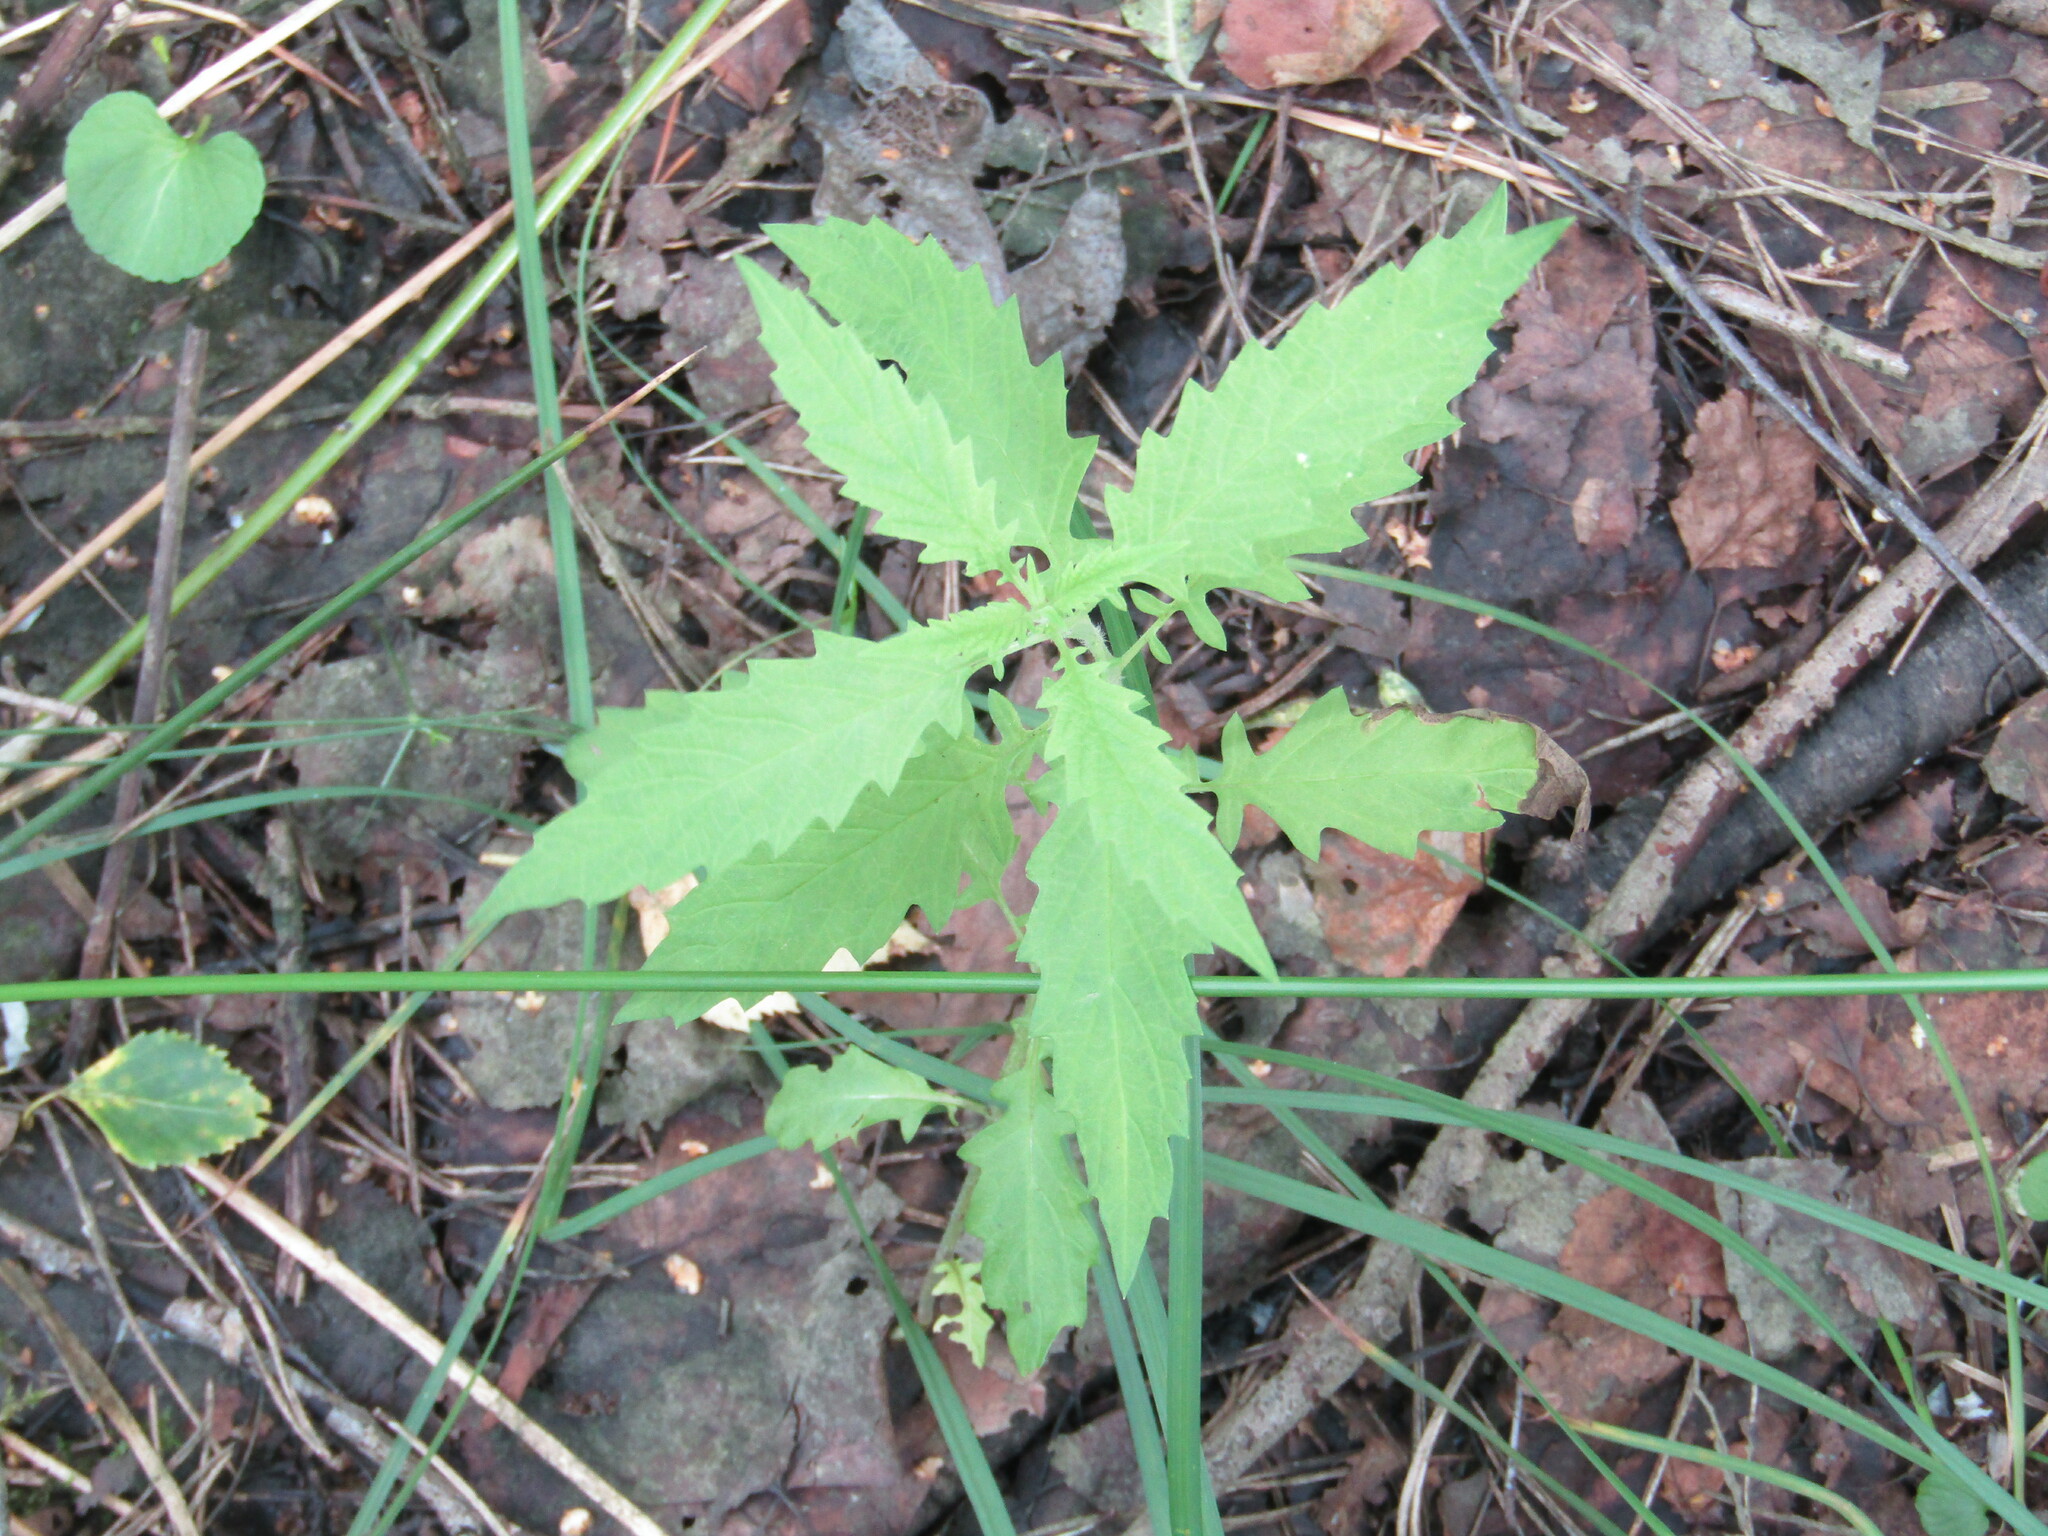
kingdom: Plantae
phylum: Tracheophyta
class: Magnoliopsida
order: Lamiales
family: Lamiaceae
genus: Lycopus
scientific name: Lycopus europaeus
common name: European bugleweed
